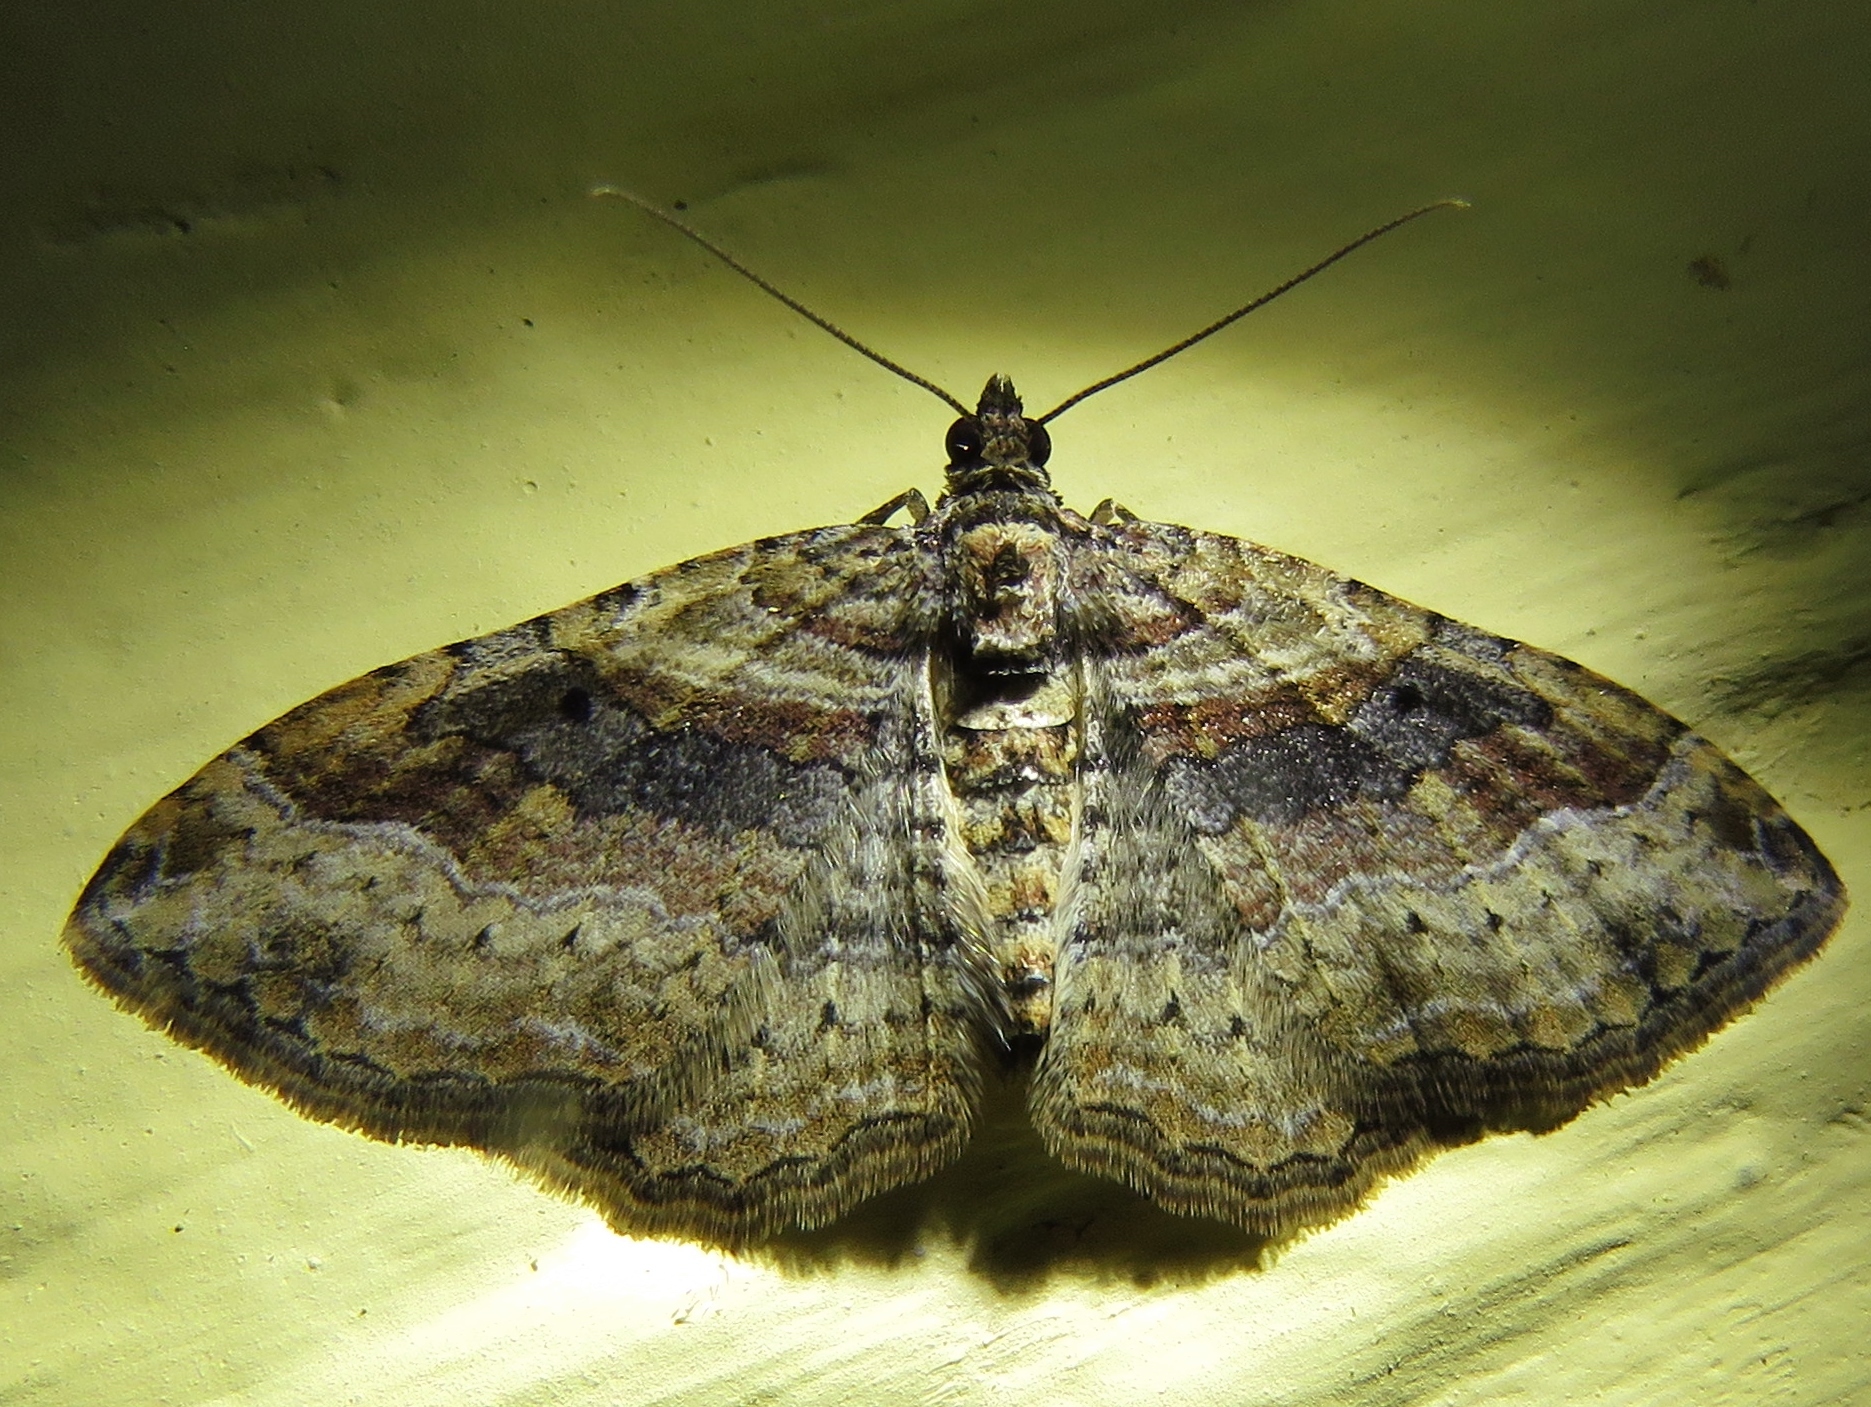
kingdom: Animalia
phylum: Arthropoda
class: Insecta
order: Lepidoptera
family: Geometridae
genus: Costaconvexa
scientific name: Costaconvexa centrostrigaria
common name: Bent-line carpet
